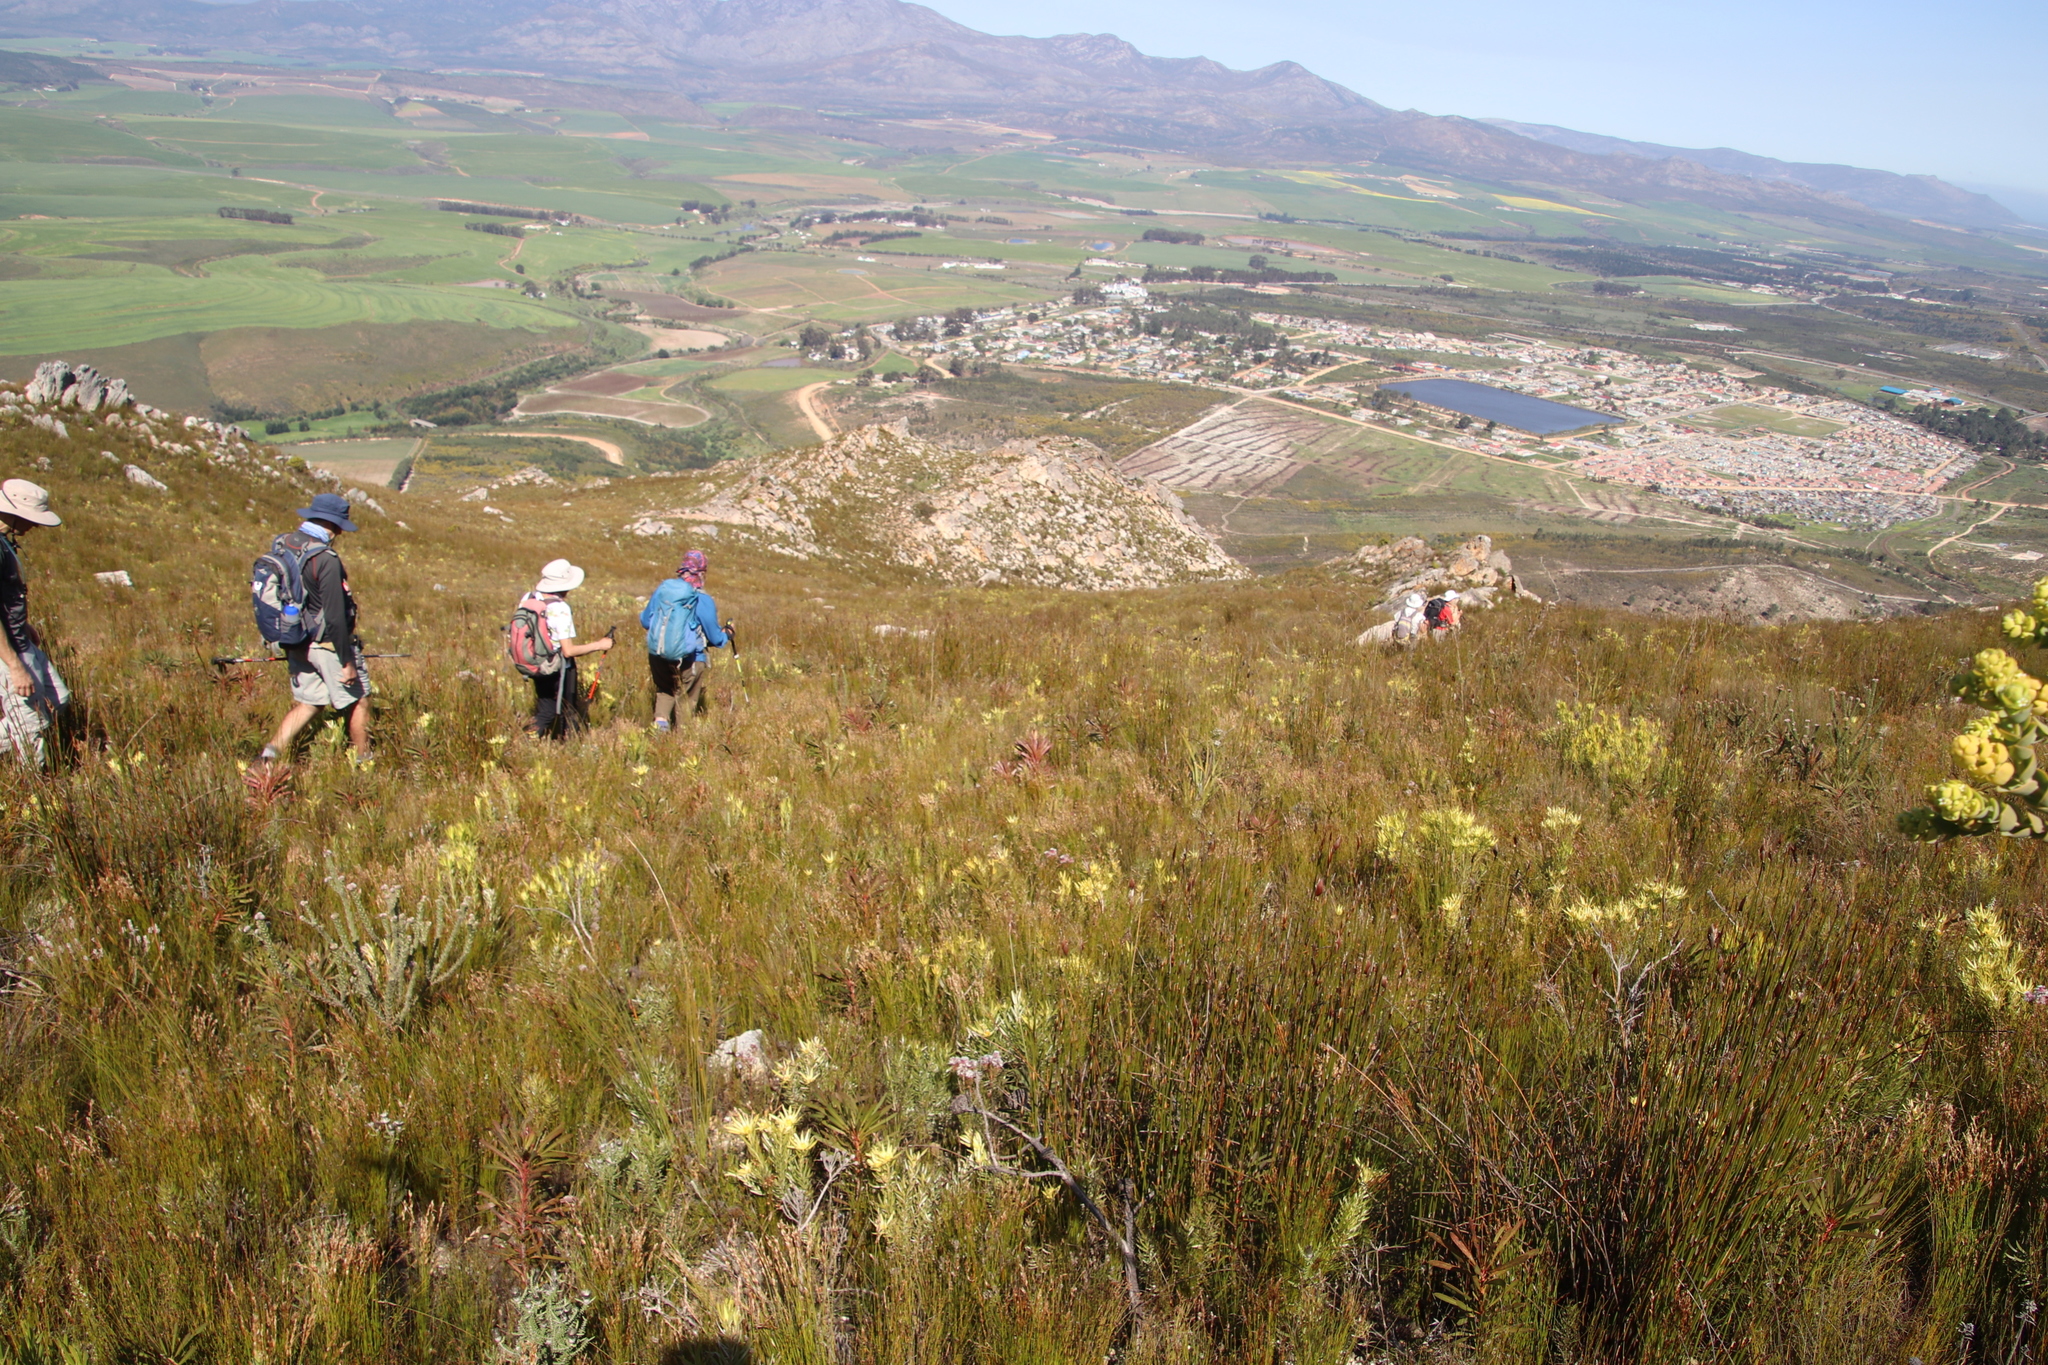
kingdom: Plantae
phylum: Tracheophyta
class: Magnoliopsida
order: Proteales
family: Proteaceae
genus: Protea
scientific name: Protea longifolia
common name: Long-leaf sugarbush
